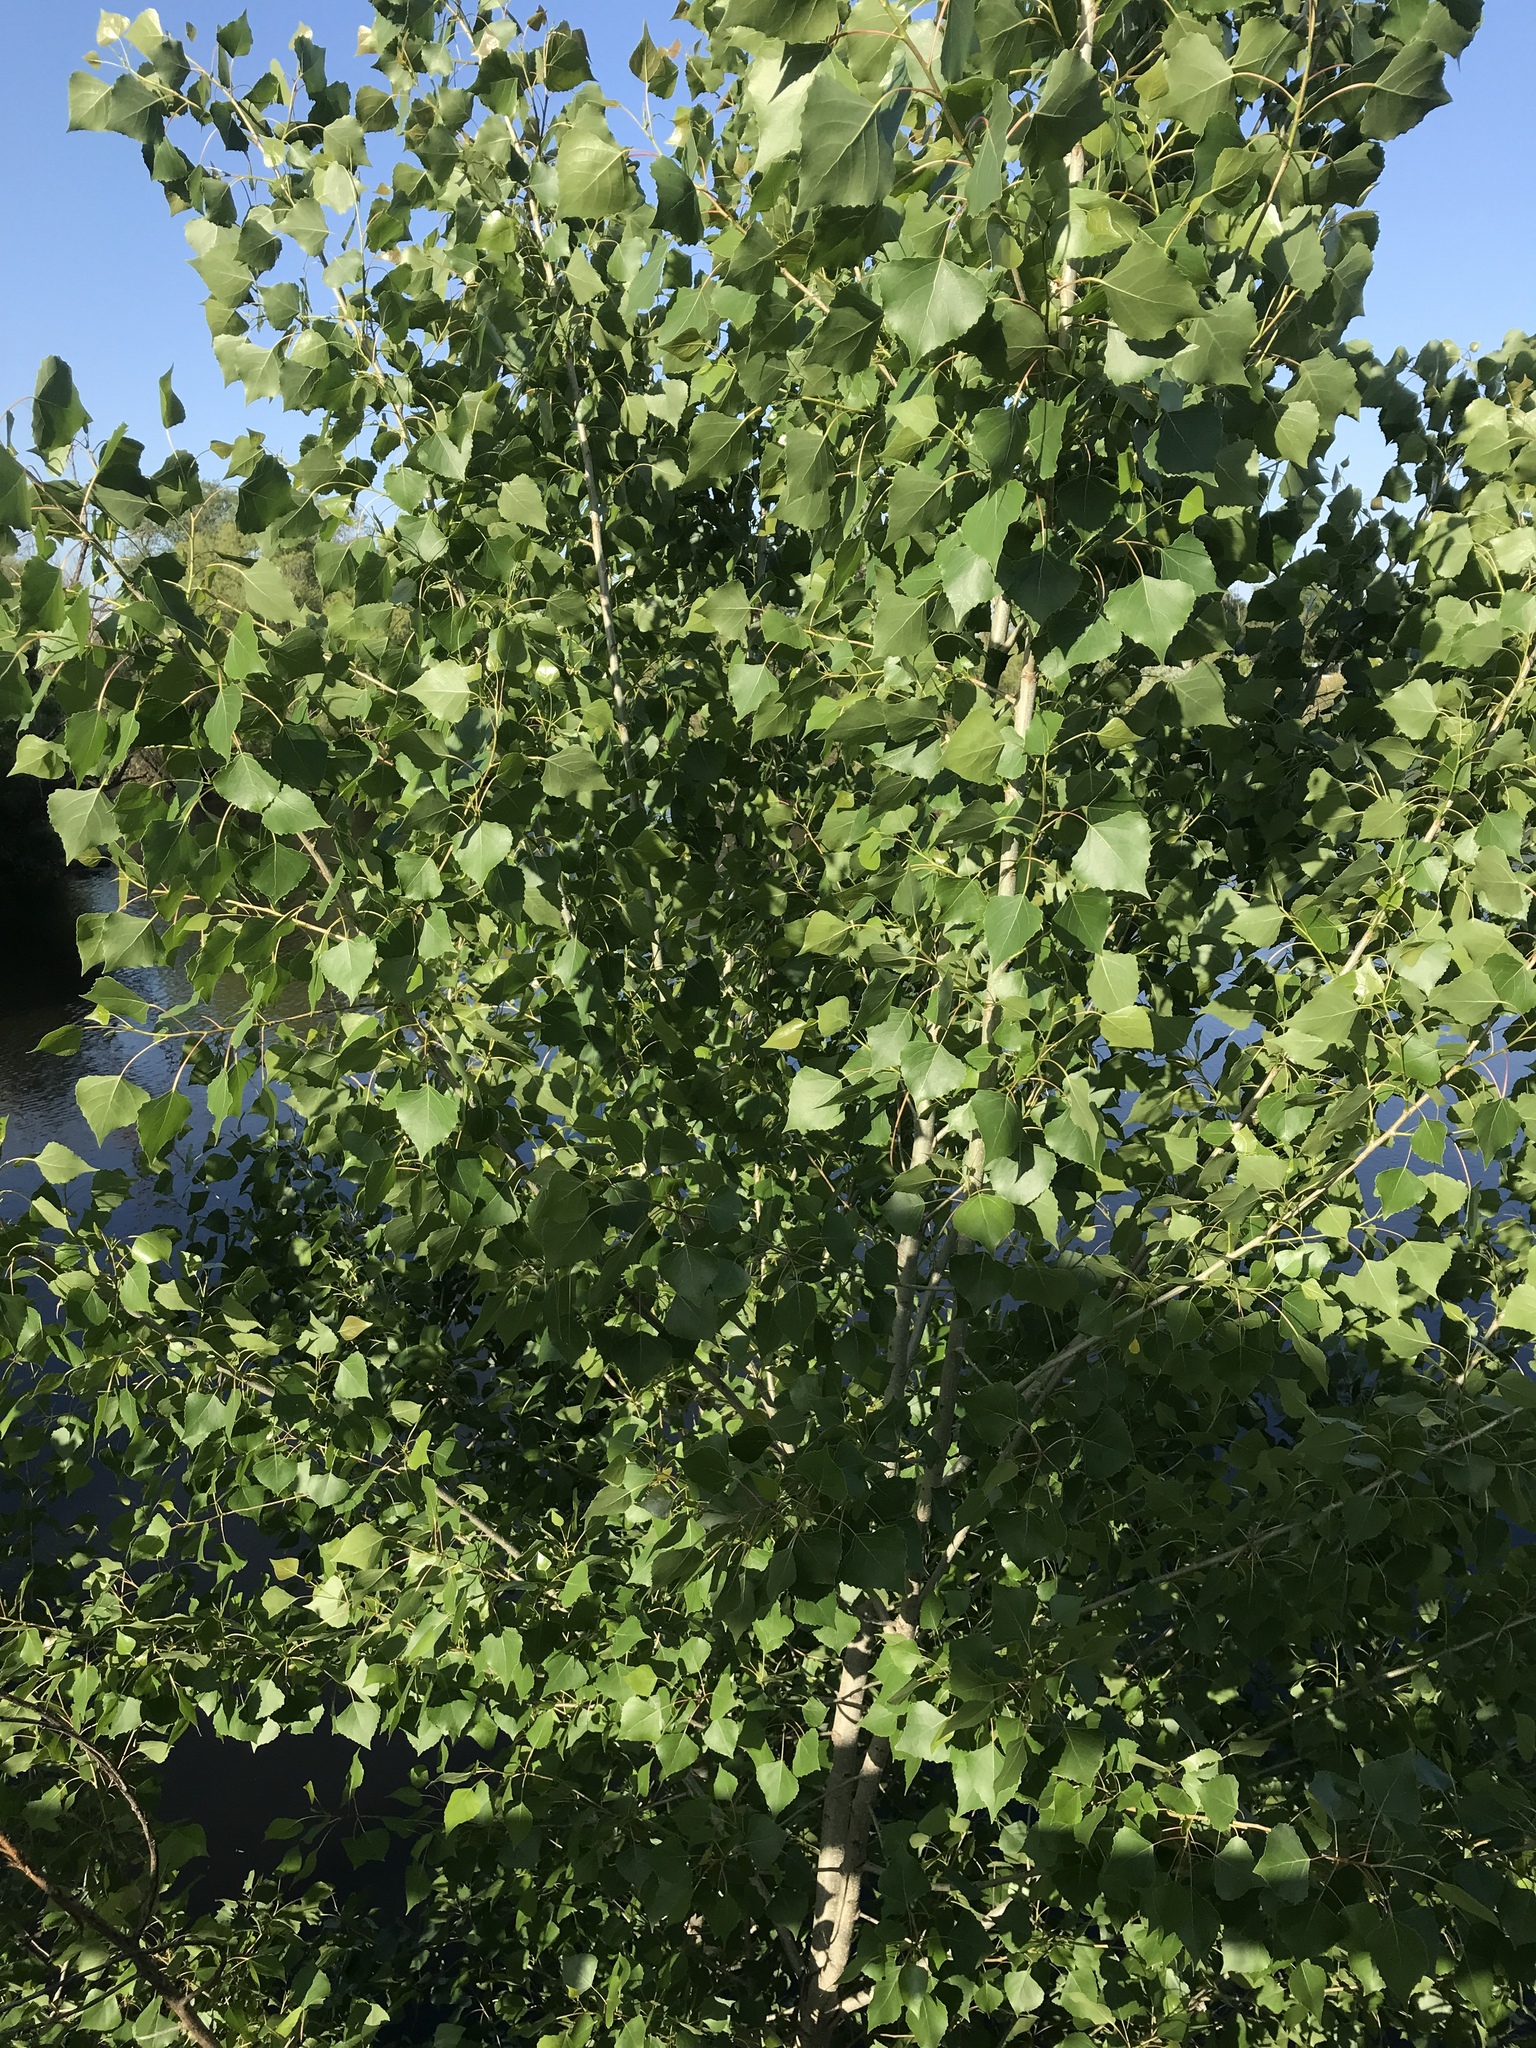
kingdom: Plantae
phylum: Tracheophyta
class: Magnoliopsida
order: Malpighiales
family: Salicaceae
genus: Populus
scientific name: Populus fremontii
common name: Fremont's cottonwood
